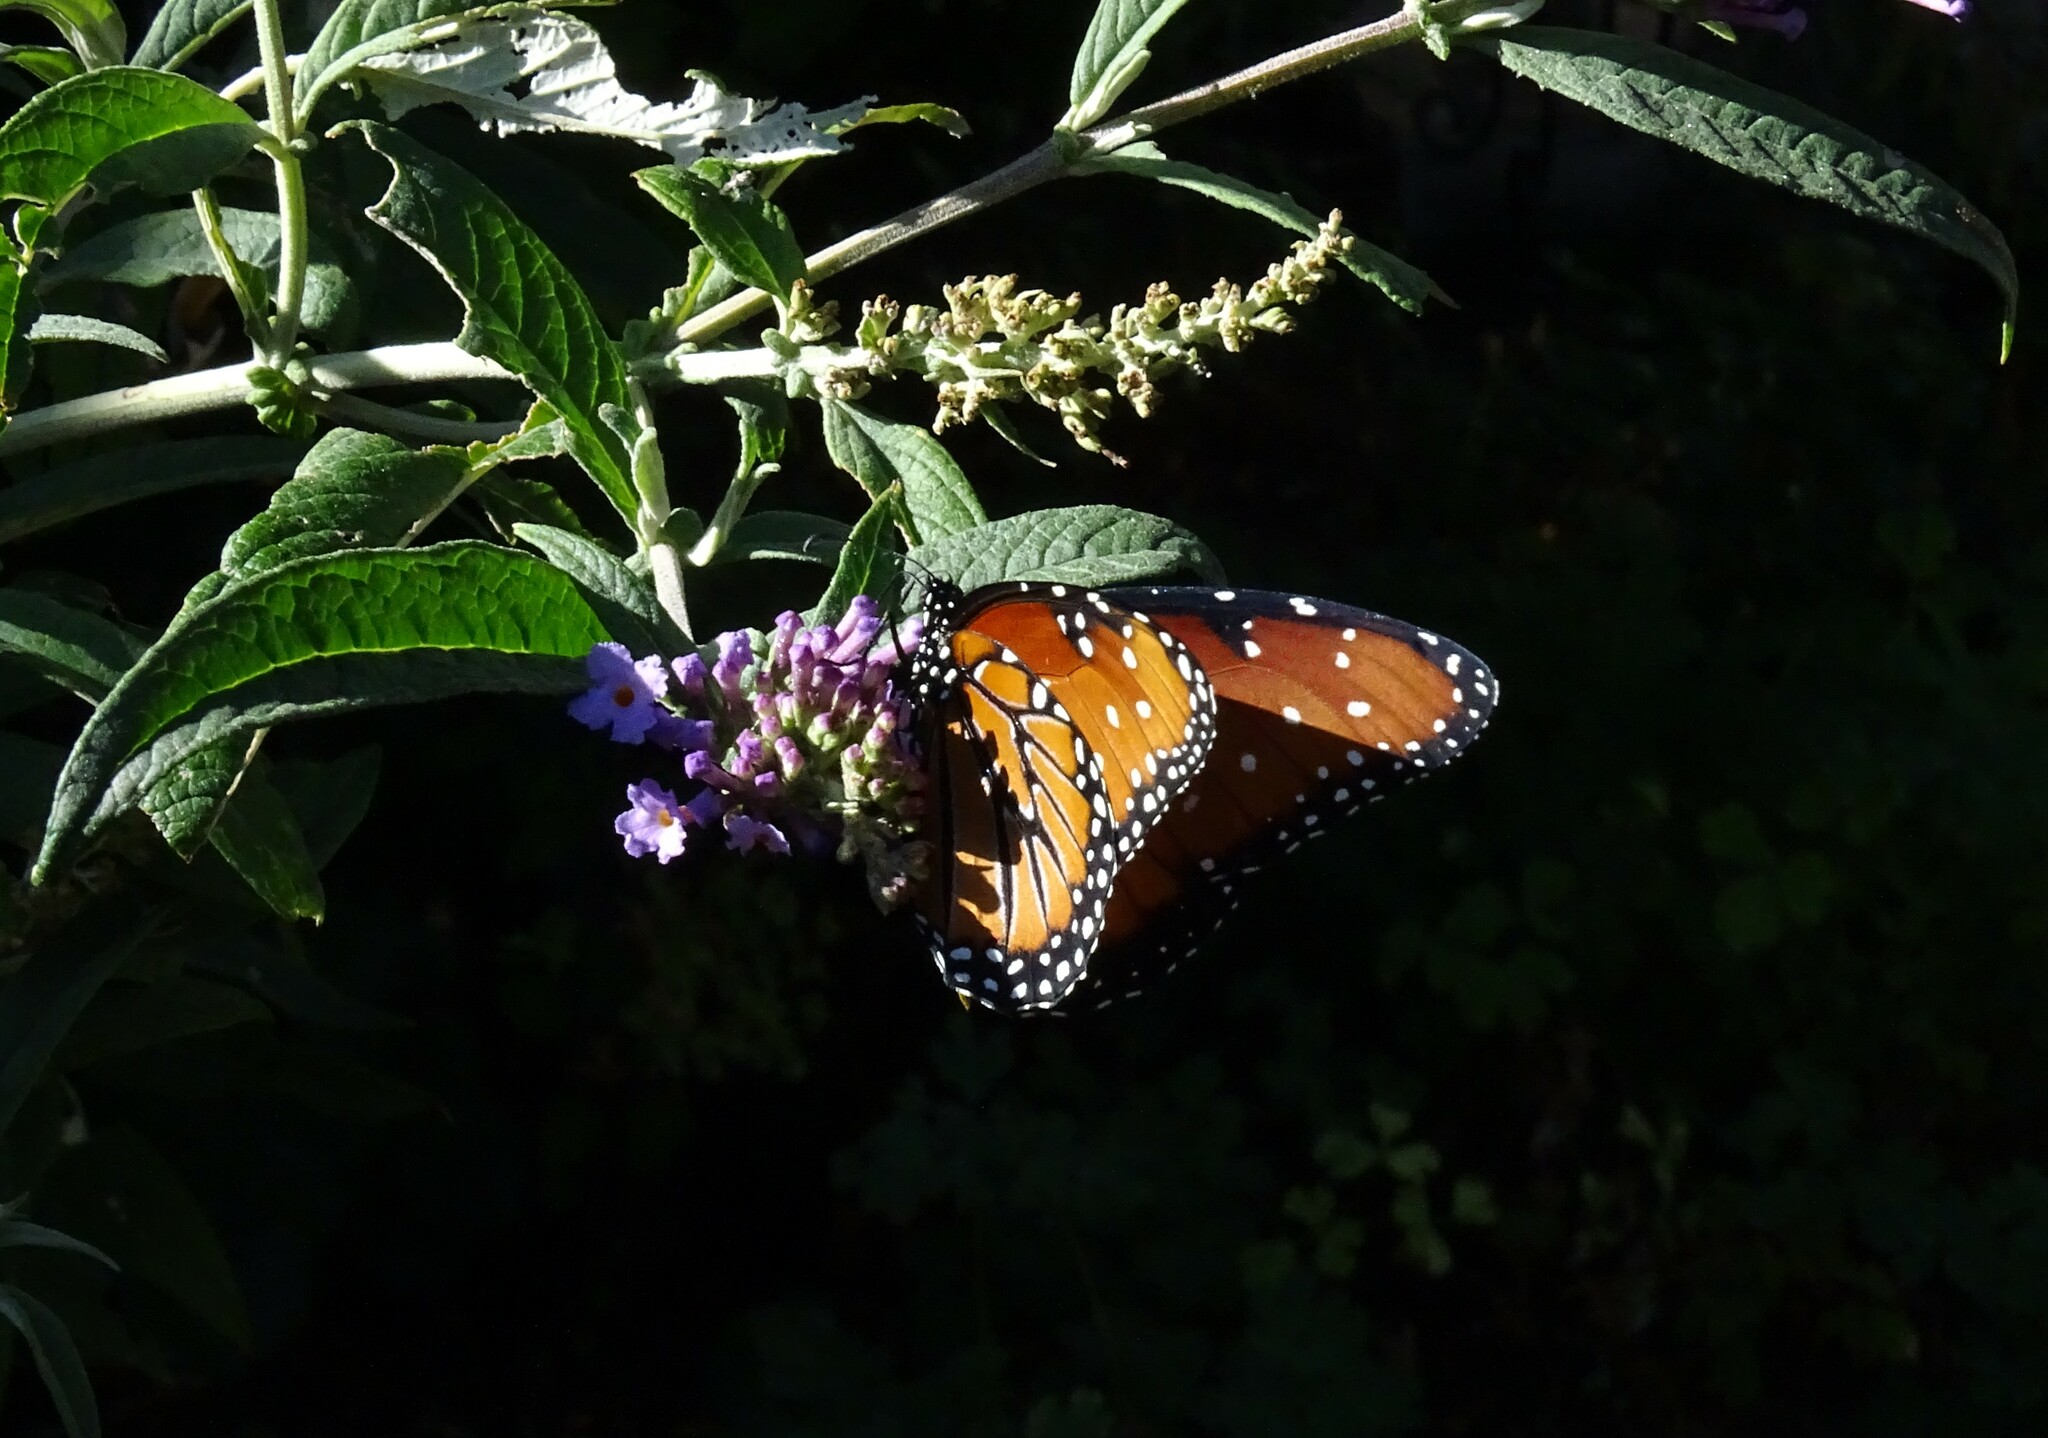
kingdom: Animalia
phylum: Arthropoda
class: Insecta
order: Lepidoptera
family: Nymphalidae
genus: Danaus
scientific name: Danaus gilippus
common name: Queen
